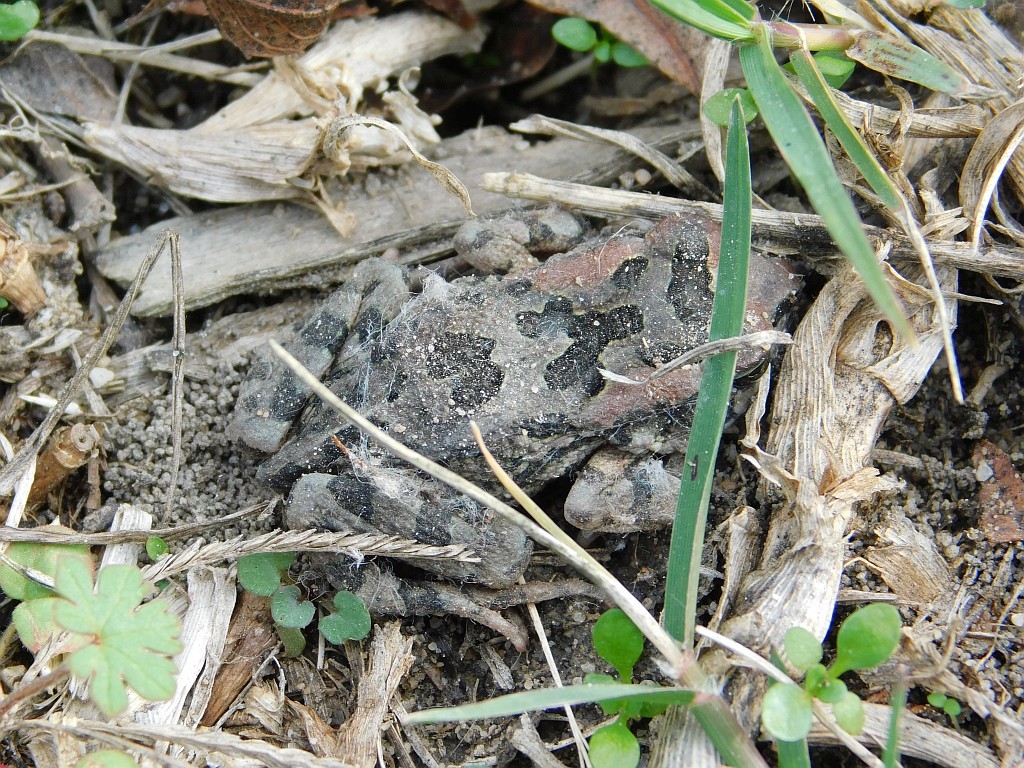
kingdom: Animalia
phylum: Chordata
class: Amphibia
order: Anura
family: Bufonidae
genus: Sclerophrys
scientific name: Sclerophrys capensis
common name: Ranger’s toad
